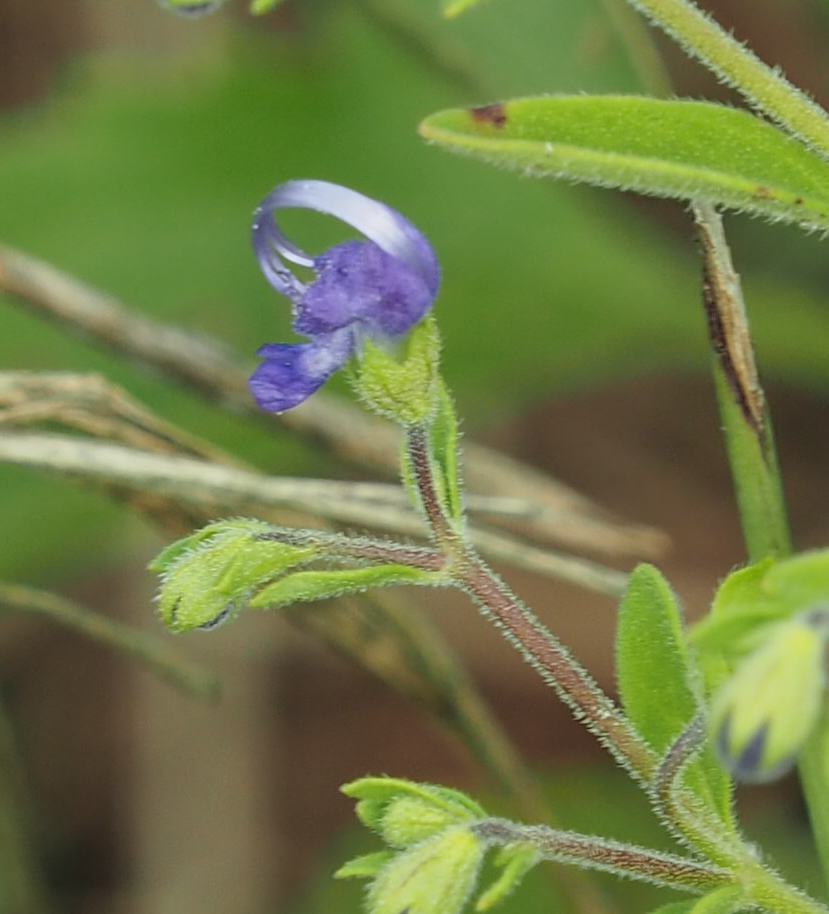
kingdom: Plantae
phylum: Tracheophyta
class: Magnoliopsida
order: Lamiales
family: Lamiaceae
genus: Trichostema
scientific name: Trichostema dichotomum
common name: Bastard pennyroyal
